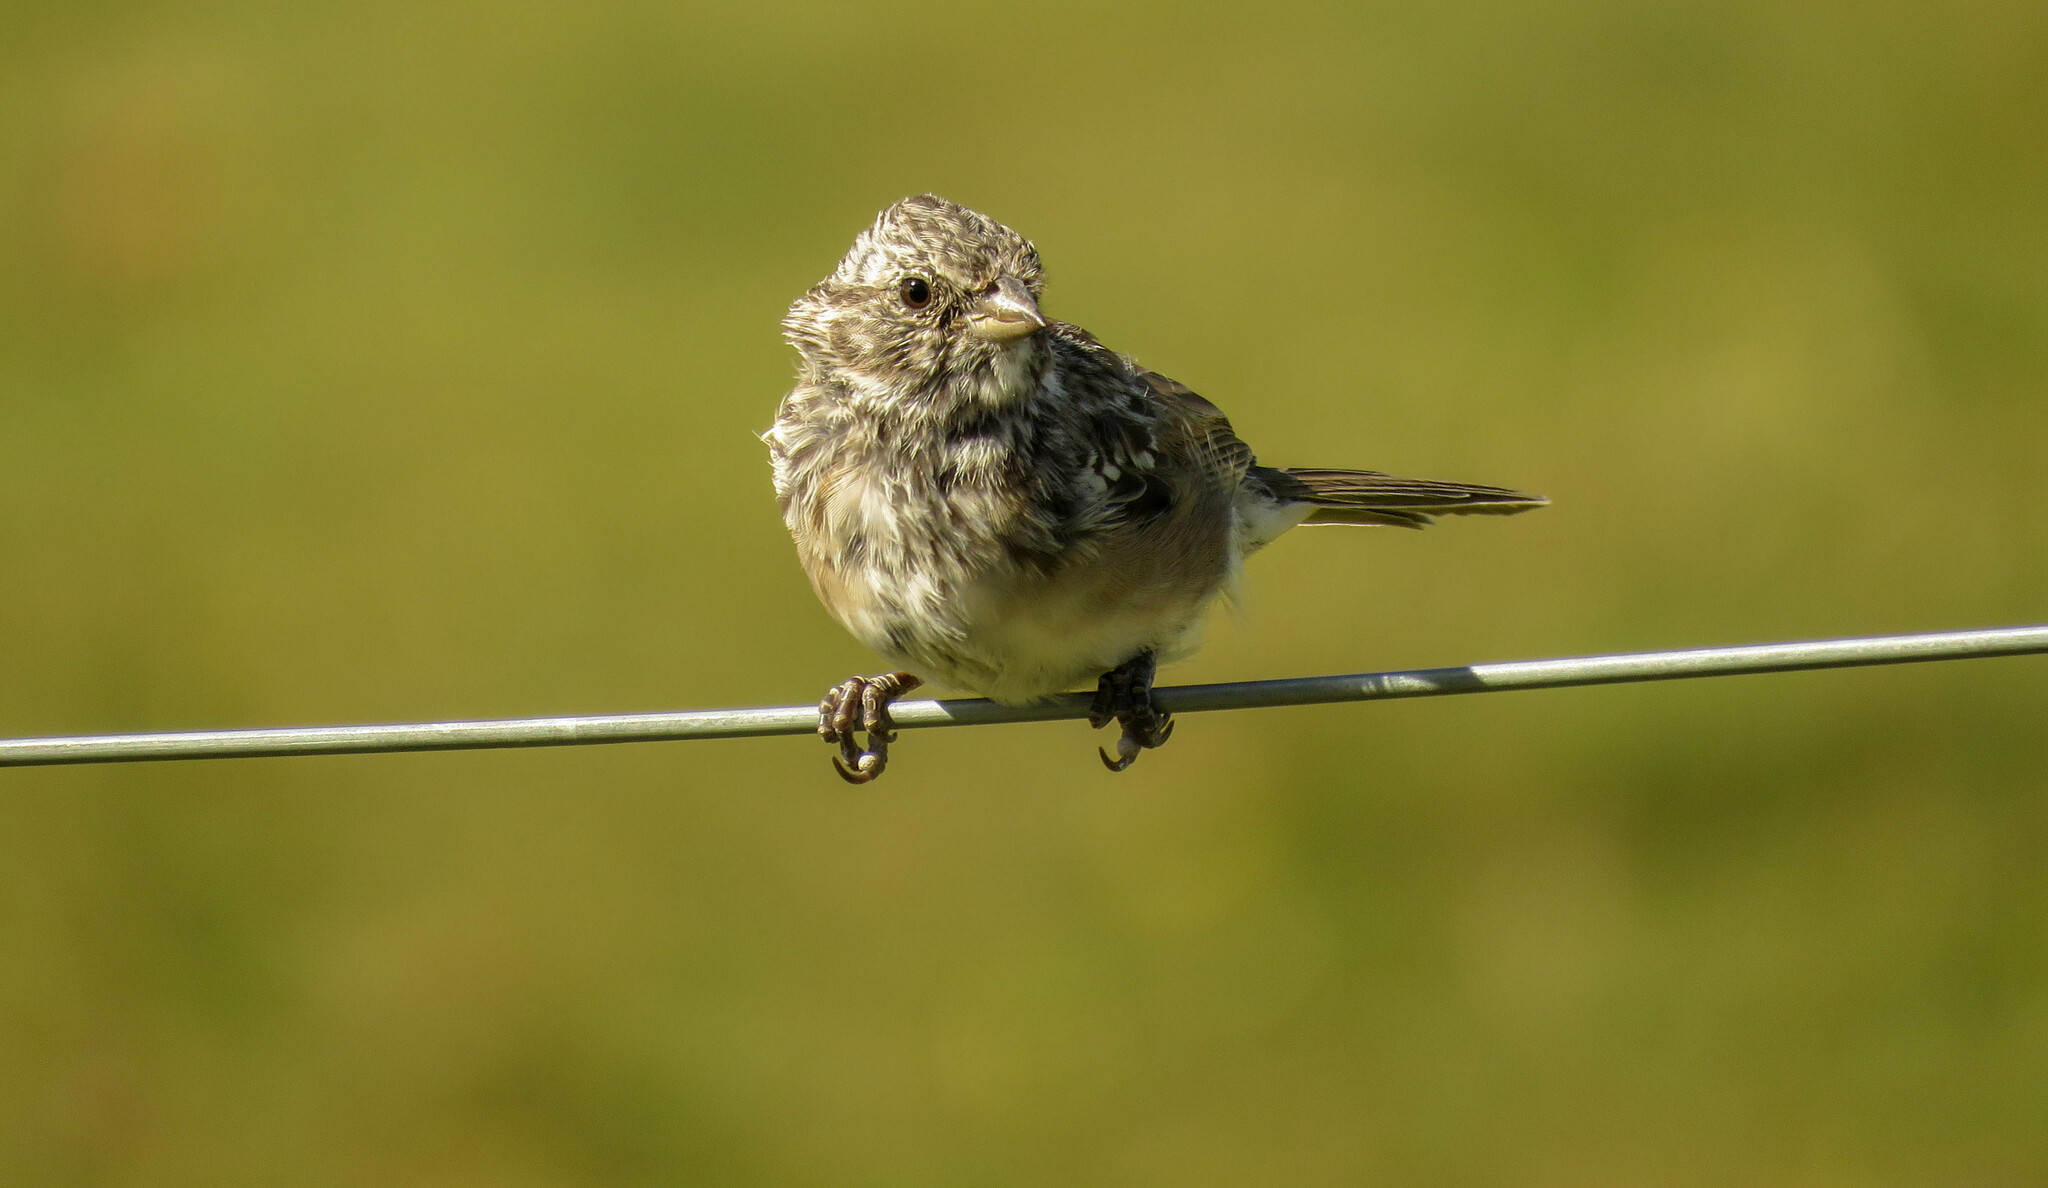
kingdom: Animalia
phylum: Chordata
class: Aves
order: Passeriformes
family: Passerellidae
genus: Zonotrichia
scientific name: Zonotrichia capensis
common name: Rufous-collared sparrow
